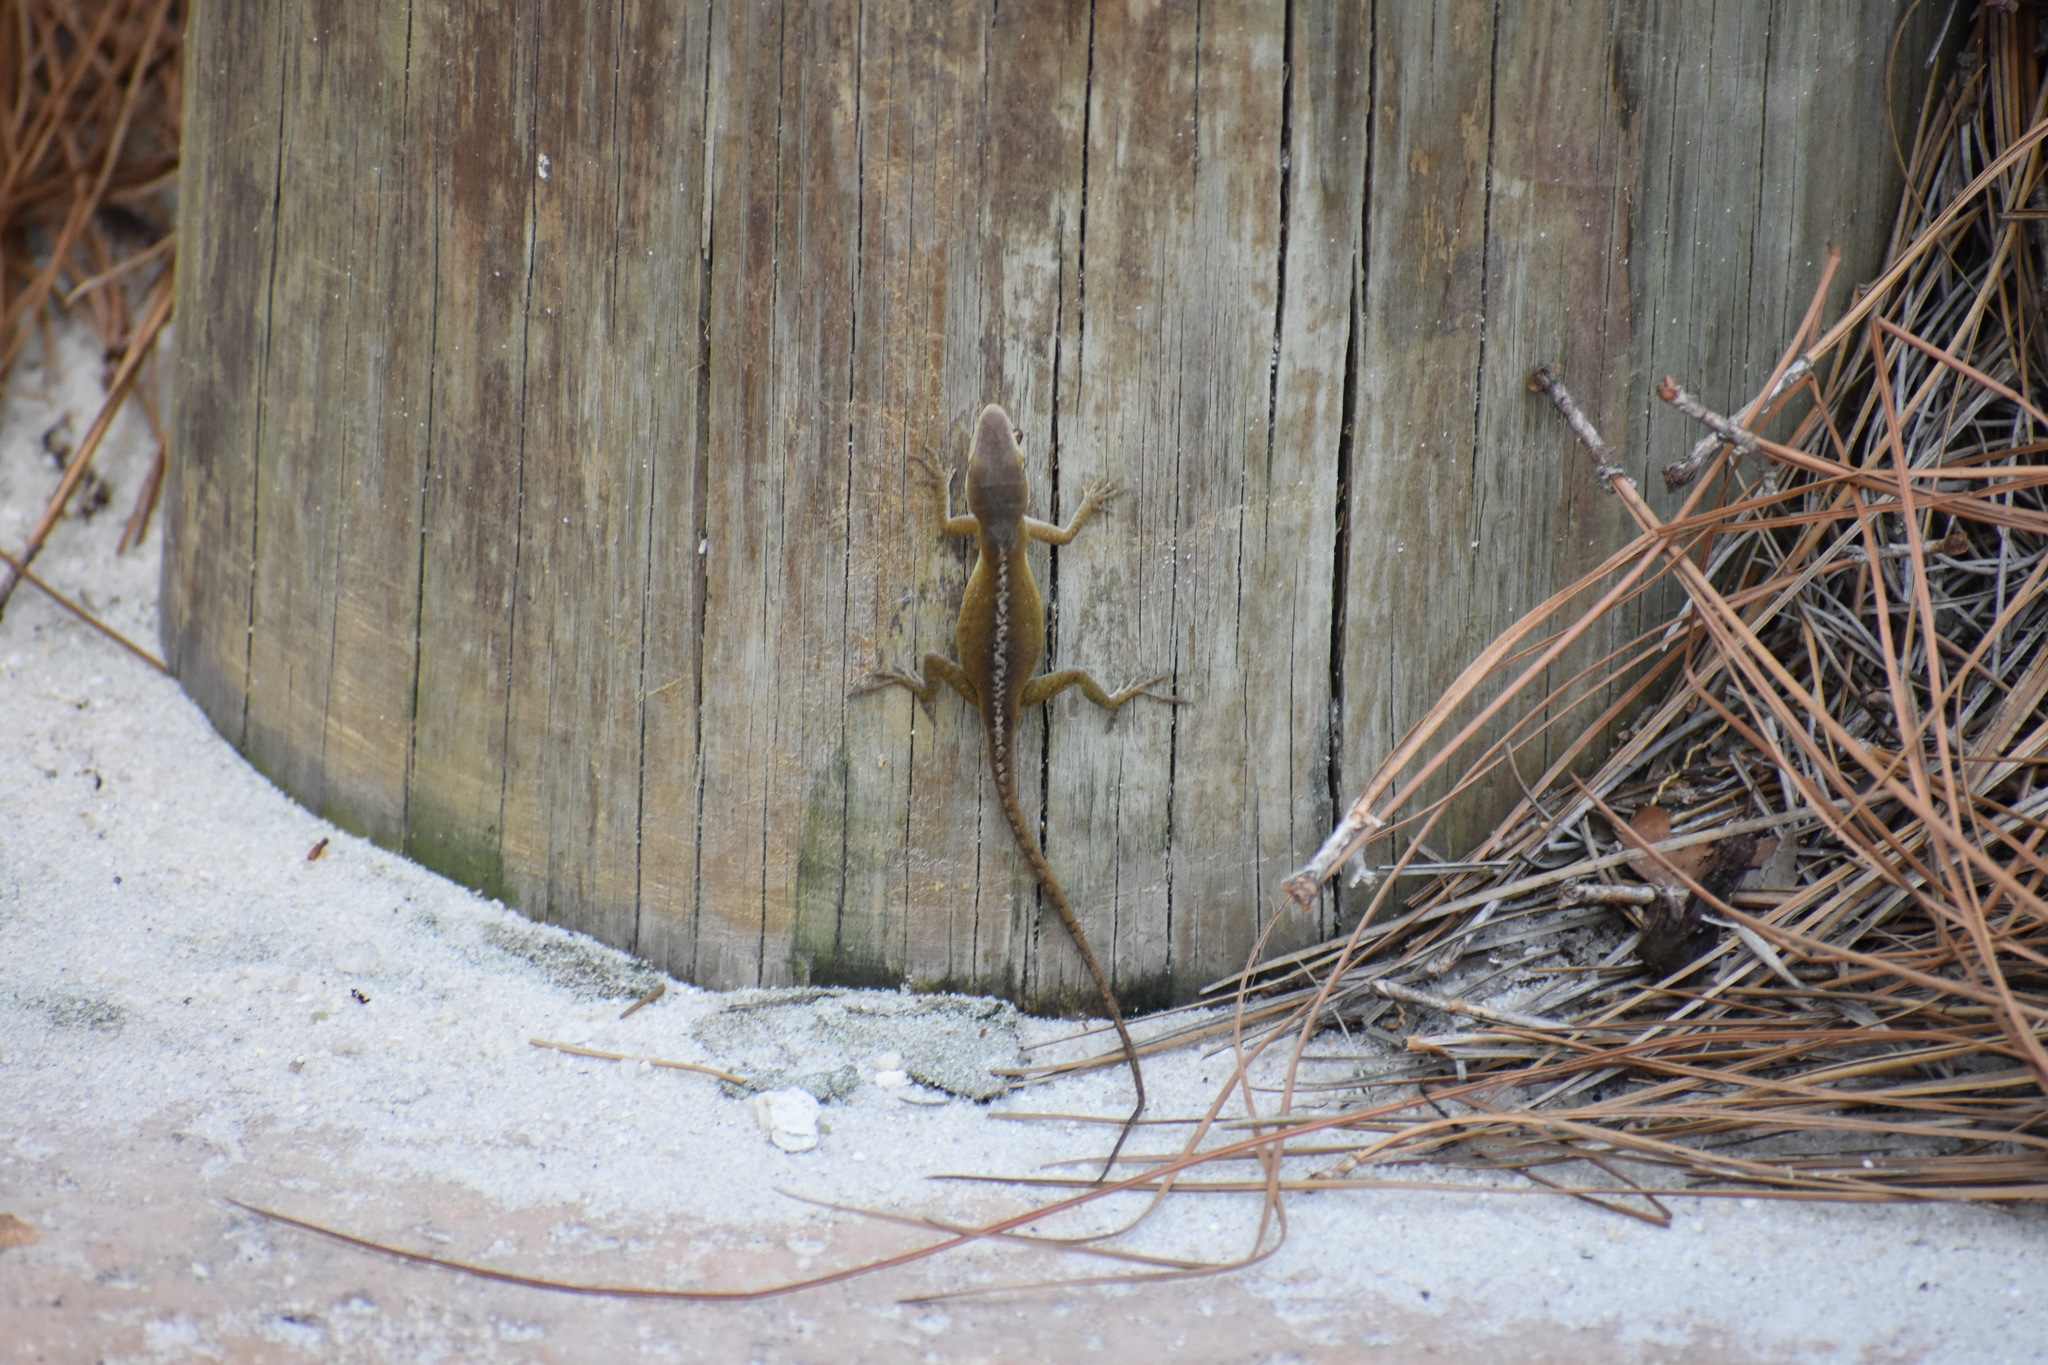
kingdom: Animalia
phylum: Chordata
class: Squamata
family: Dactyloidae
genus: Anolis
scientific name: Anolis carolinensis
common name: Green anole
